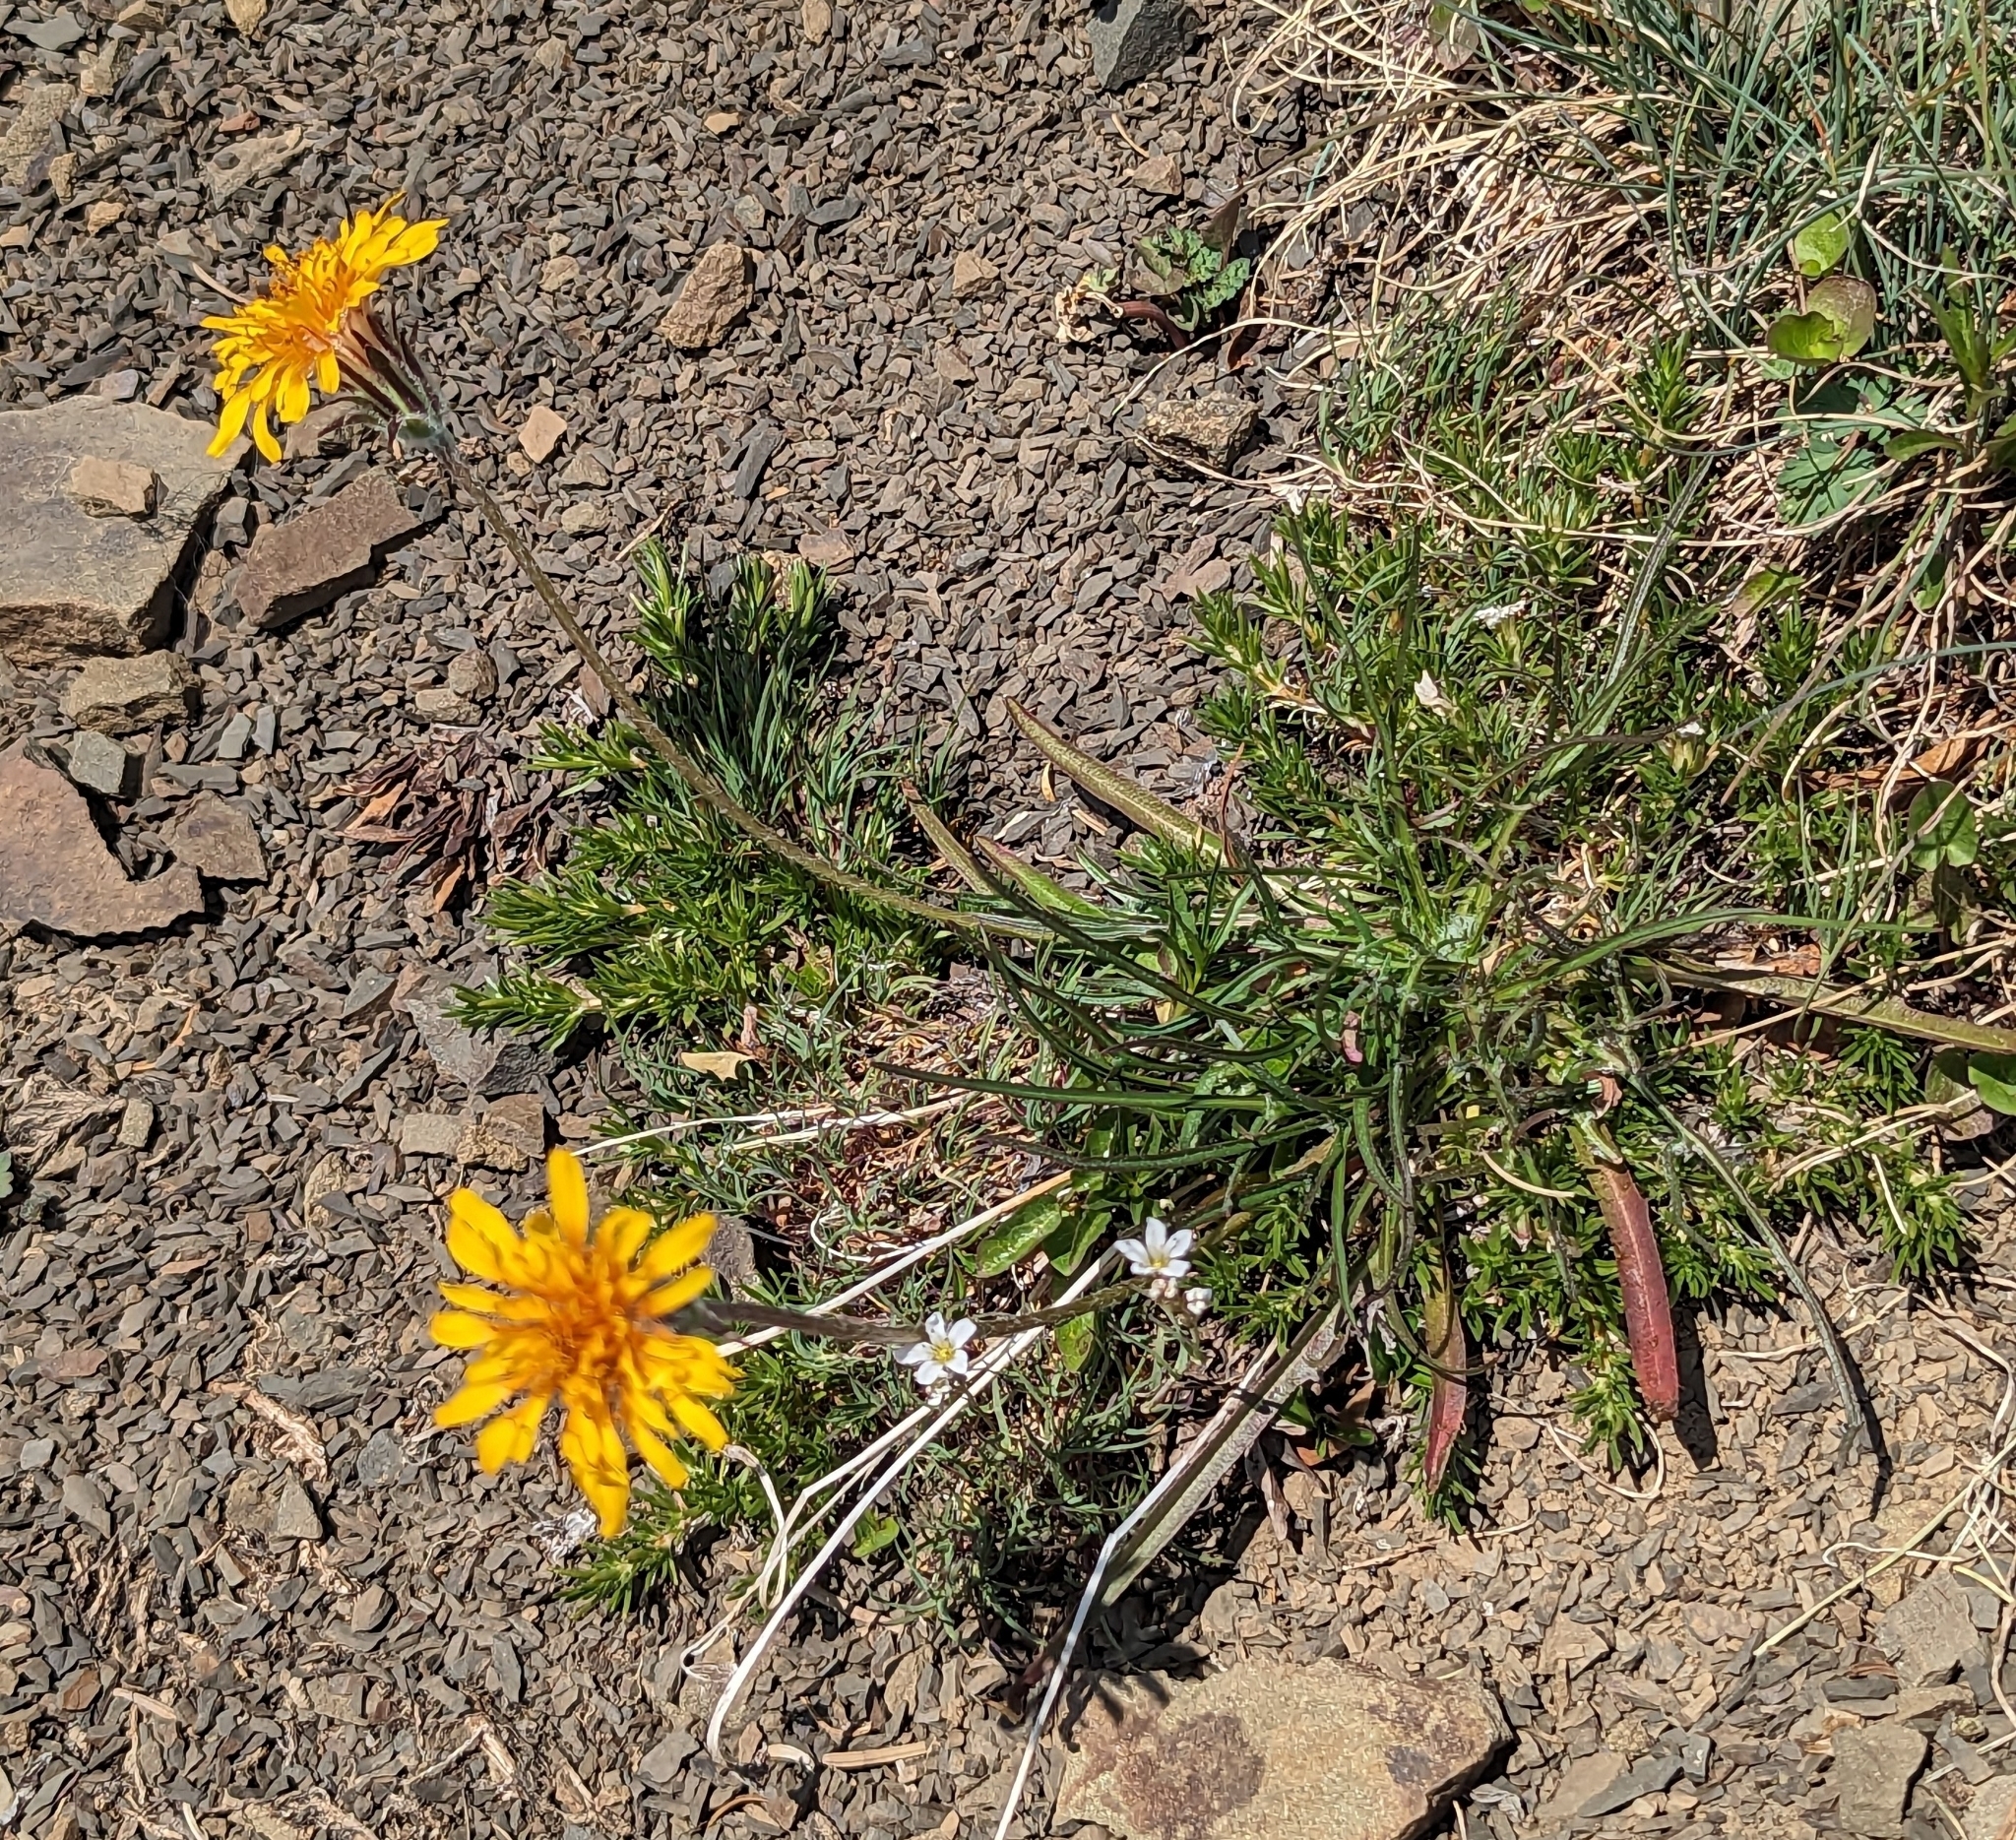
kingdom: Plantae
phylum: Tracheophyta
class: Magnoliopsida
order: Asterales
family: Asteraceae
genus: Agoseris
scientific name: Agoseris aurantiaca
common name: Mountain agoseris
